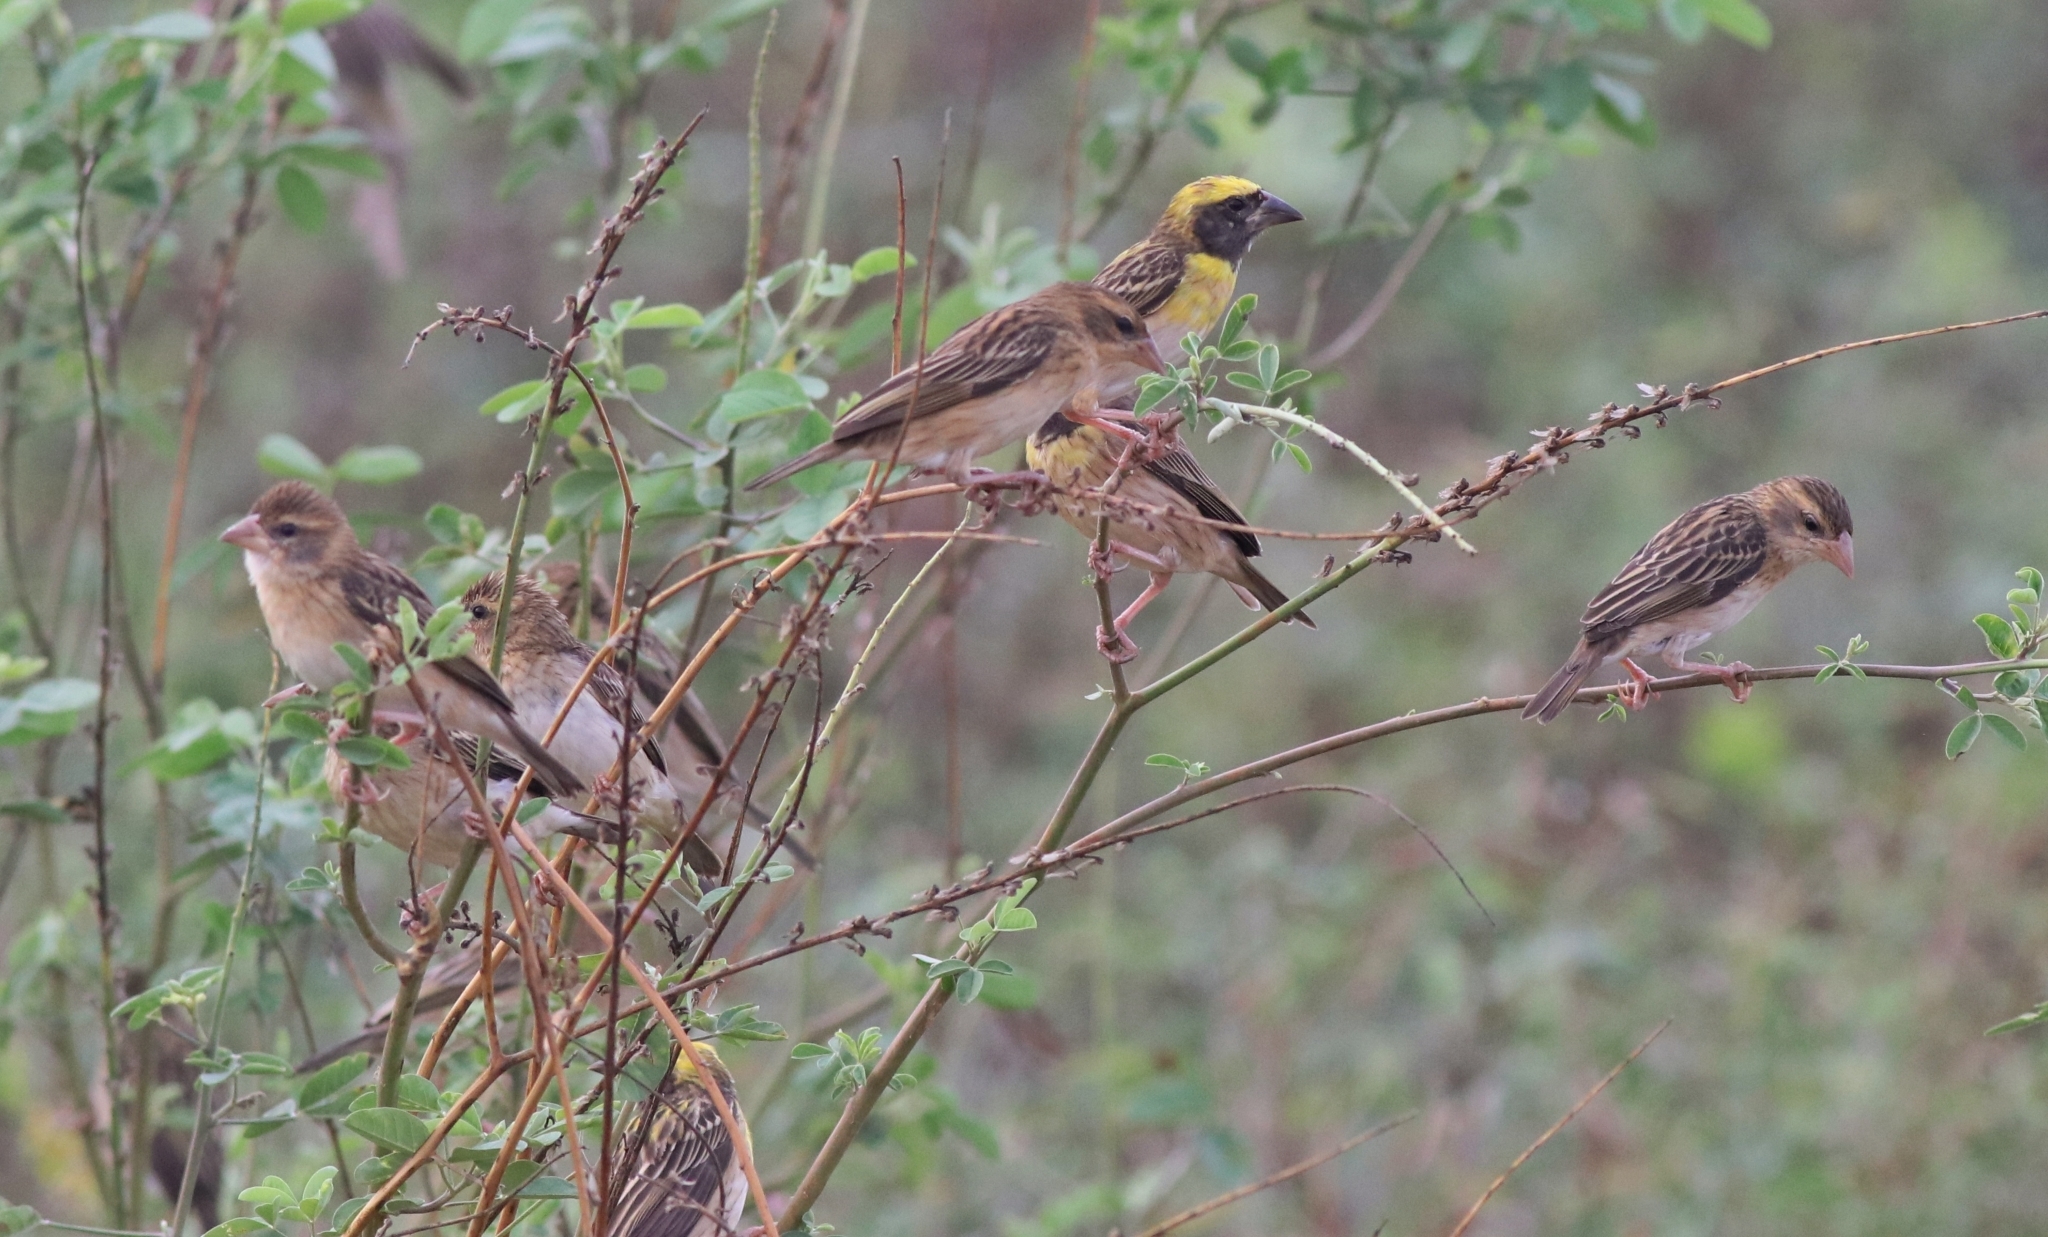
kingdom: Animalia
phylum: Chordata
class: Aves
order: Passeriformes
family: Ploceidae
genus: Ploceus
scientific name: Ploceus philippinus
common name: Baya weaver
